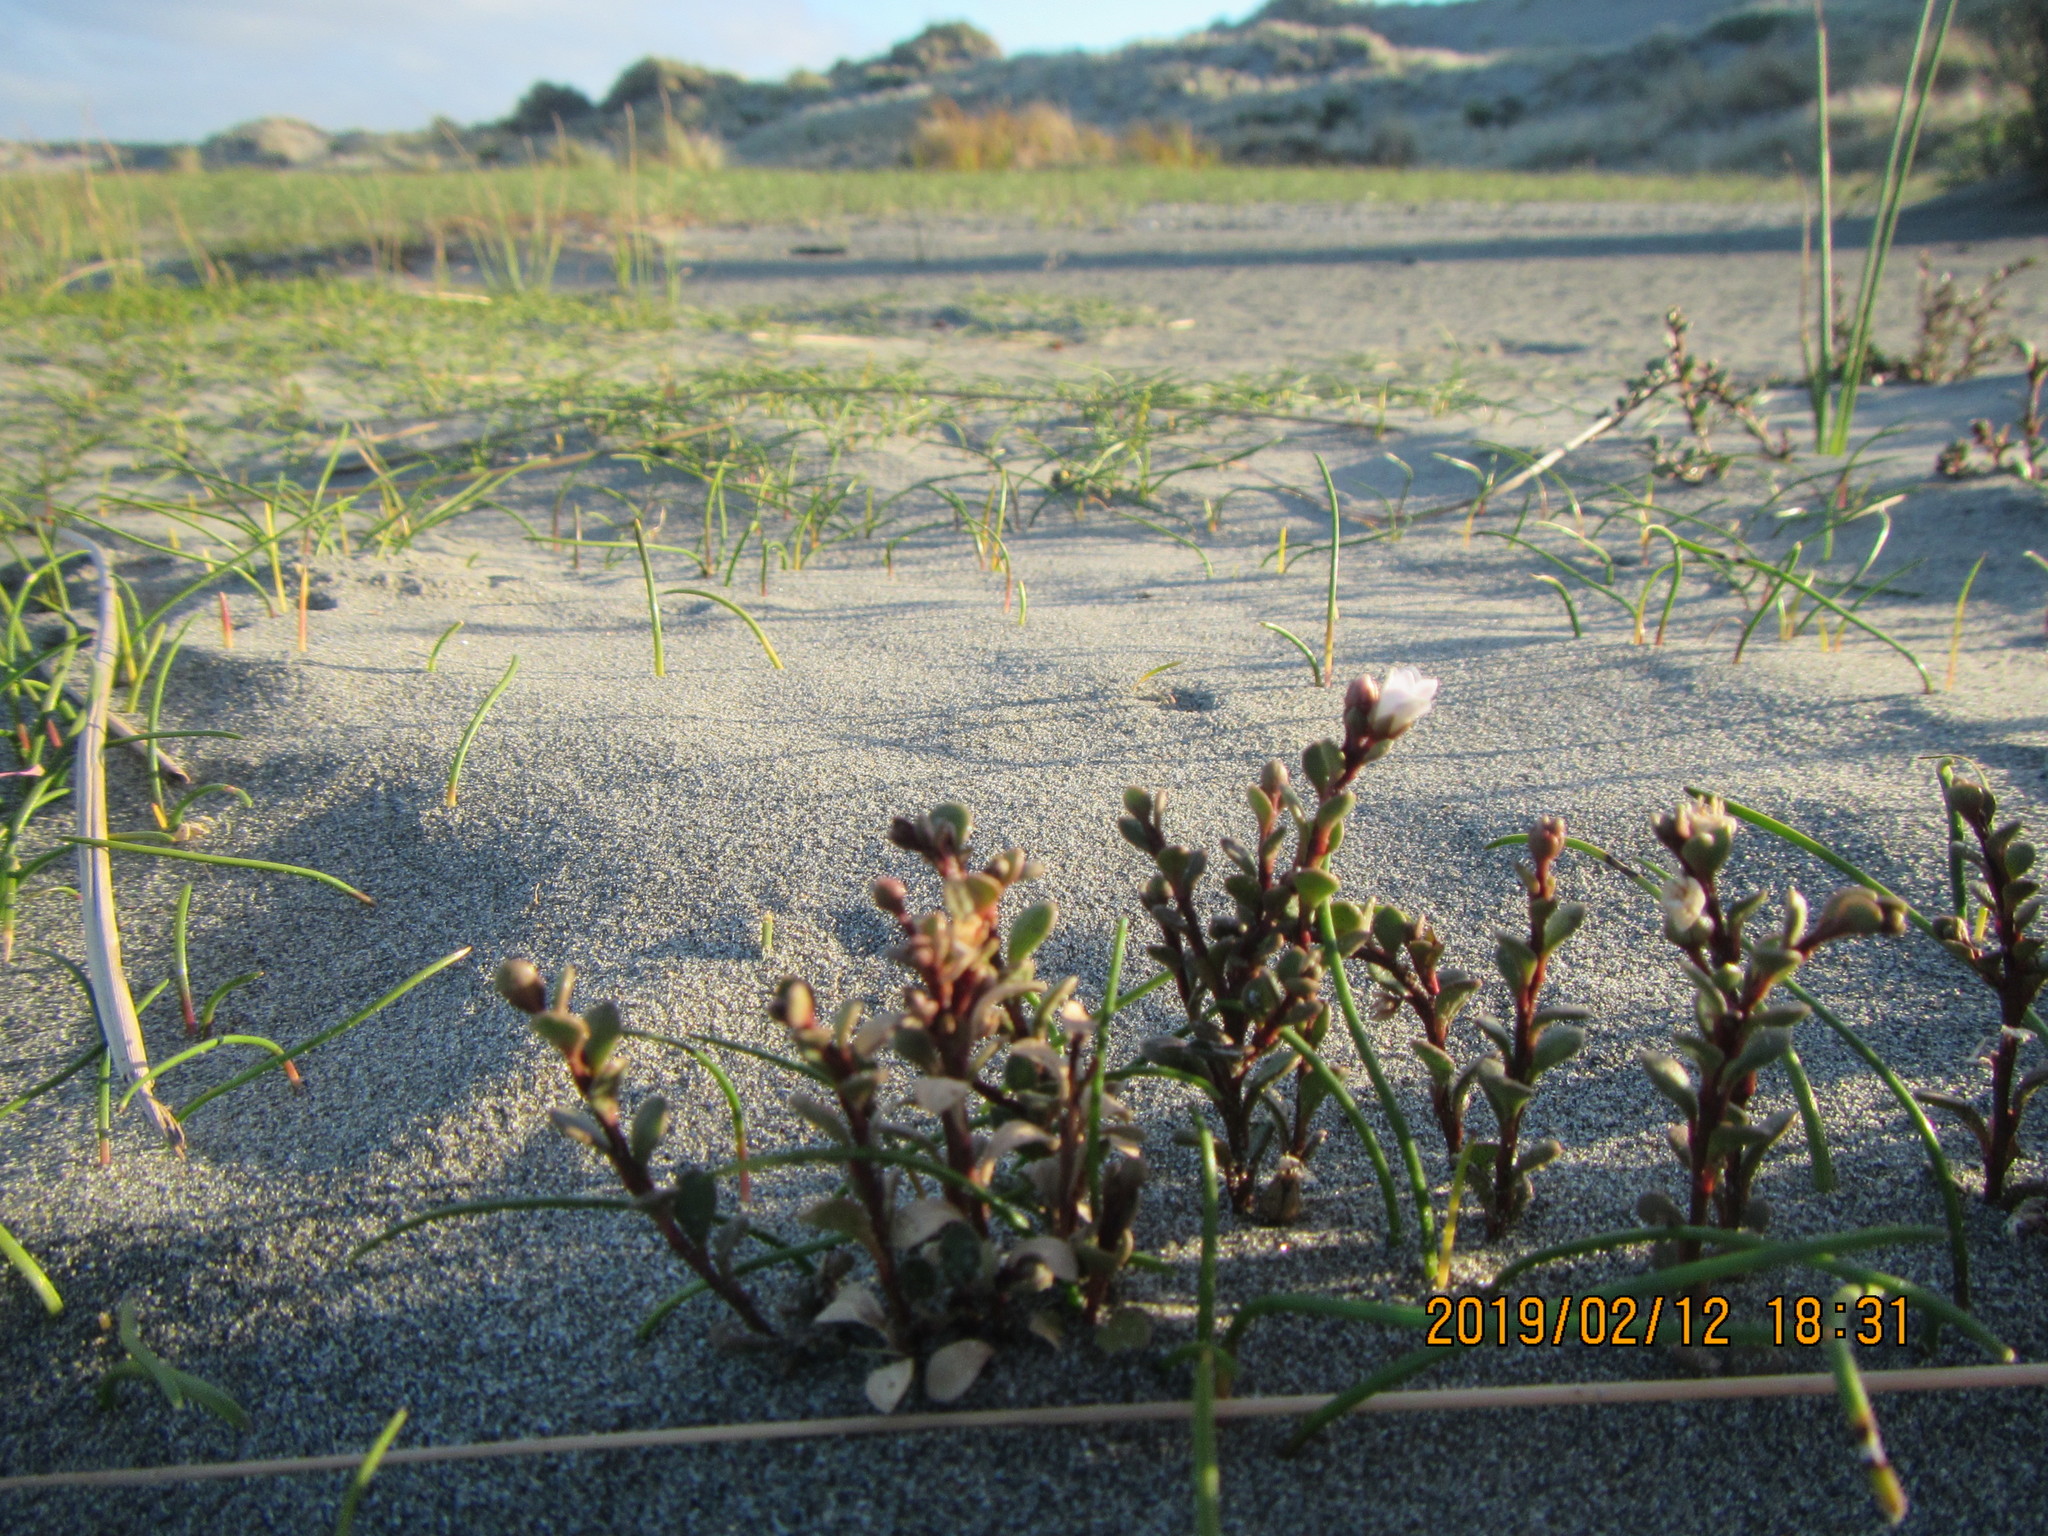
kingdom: Plantae
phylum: Tracheophyta
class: Magnoliopsida
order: Ericales
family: Primulaceae
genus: Samolus
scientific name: Samolus repens
